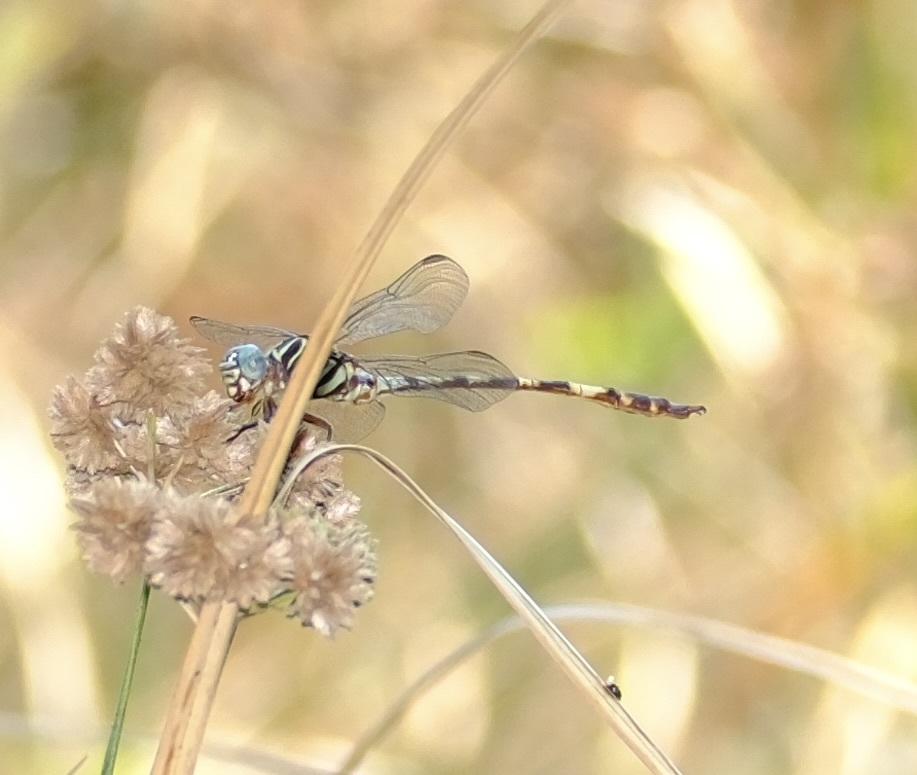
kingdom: Animalia
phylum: Arthropoda
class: Insecta
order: Odonata
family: Gomphidae
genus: Aphylla
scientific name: Aphylla angustifolia
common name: Broad-striped forceptail
